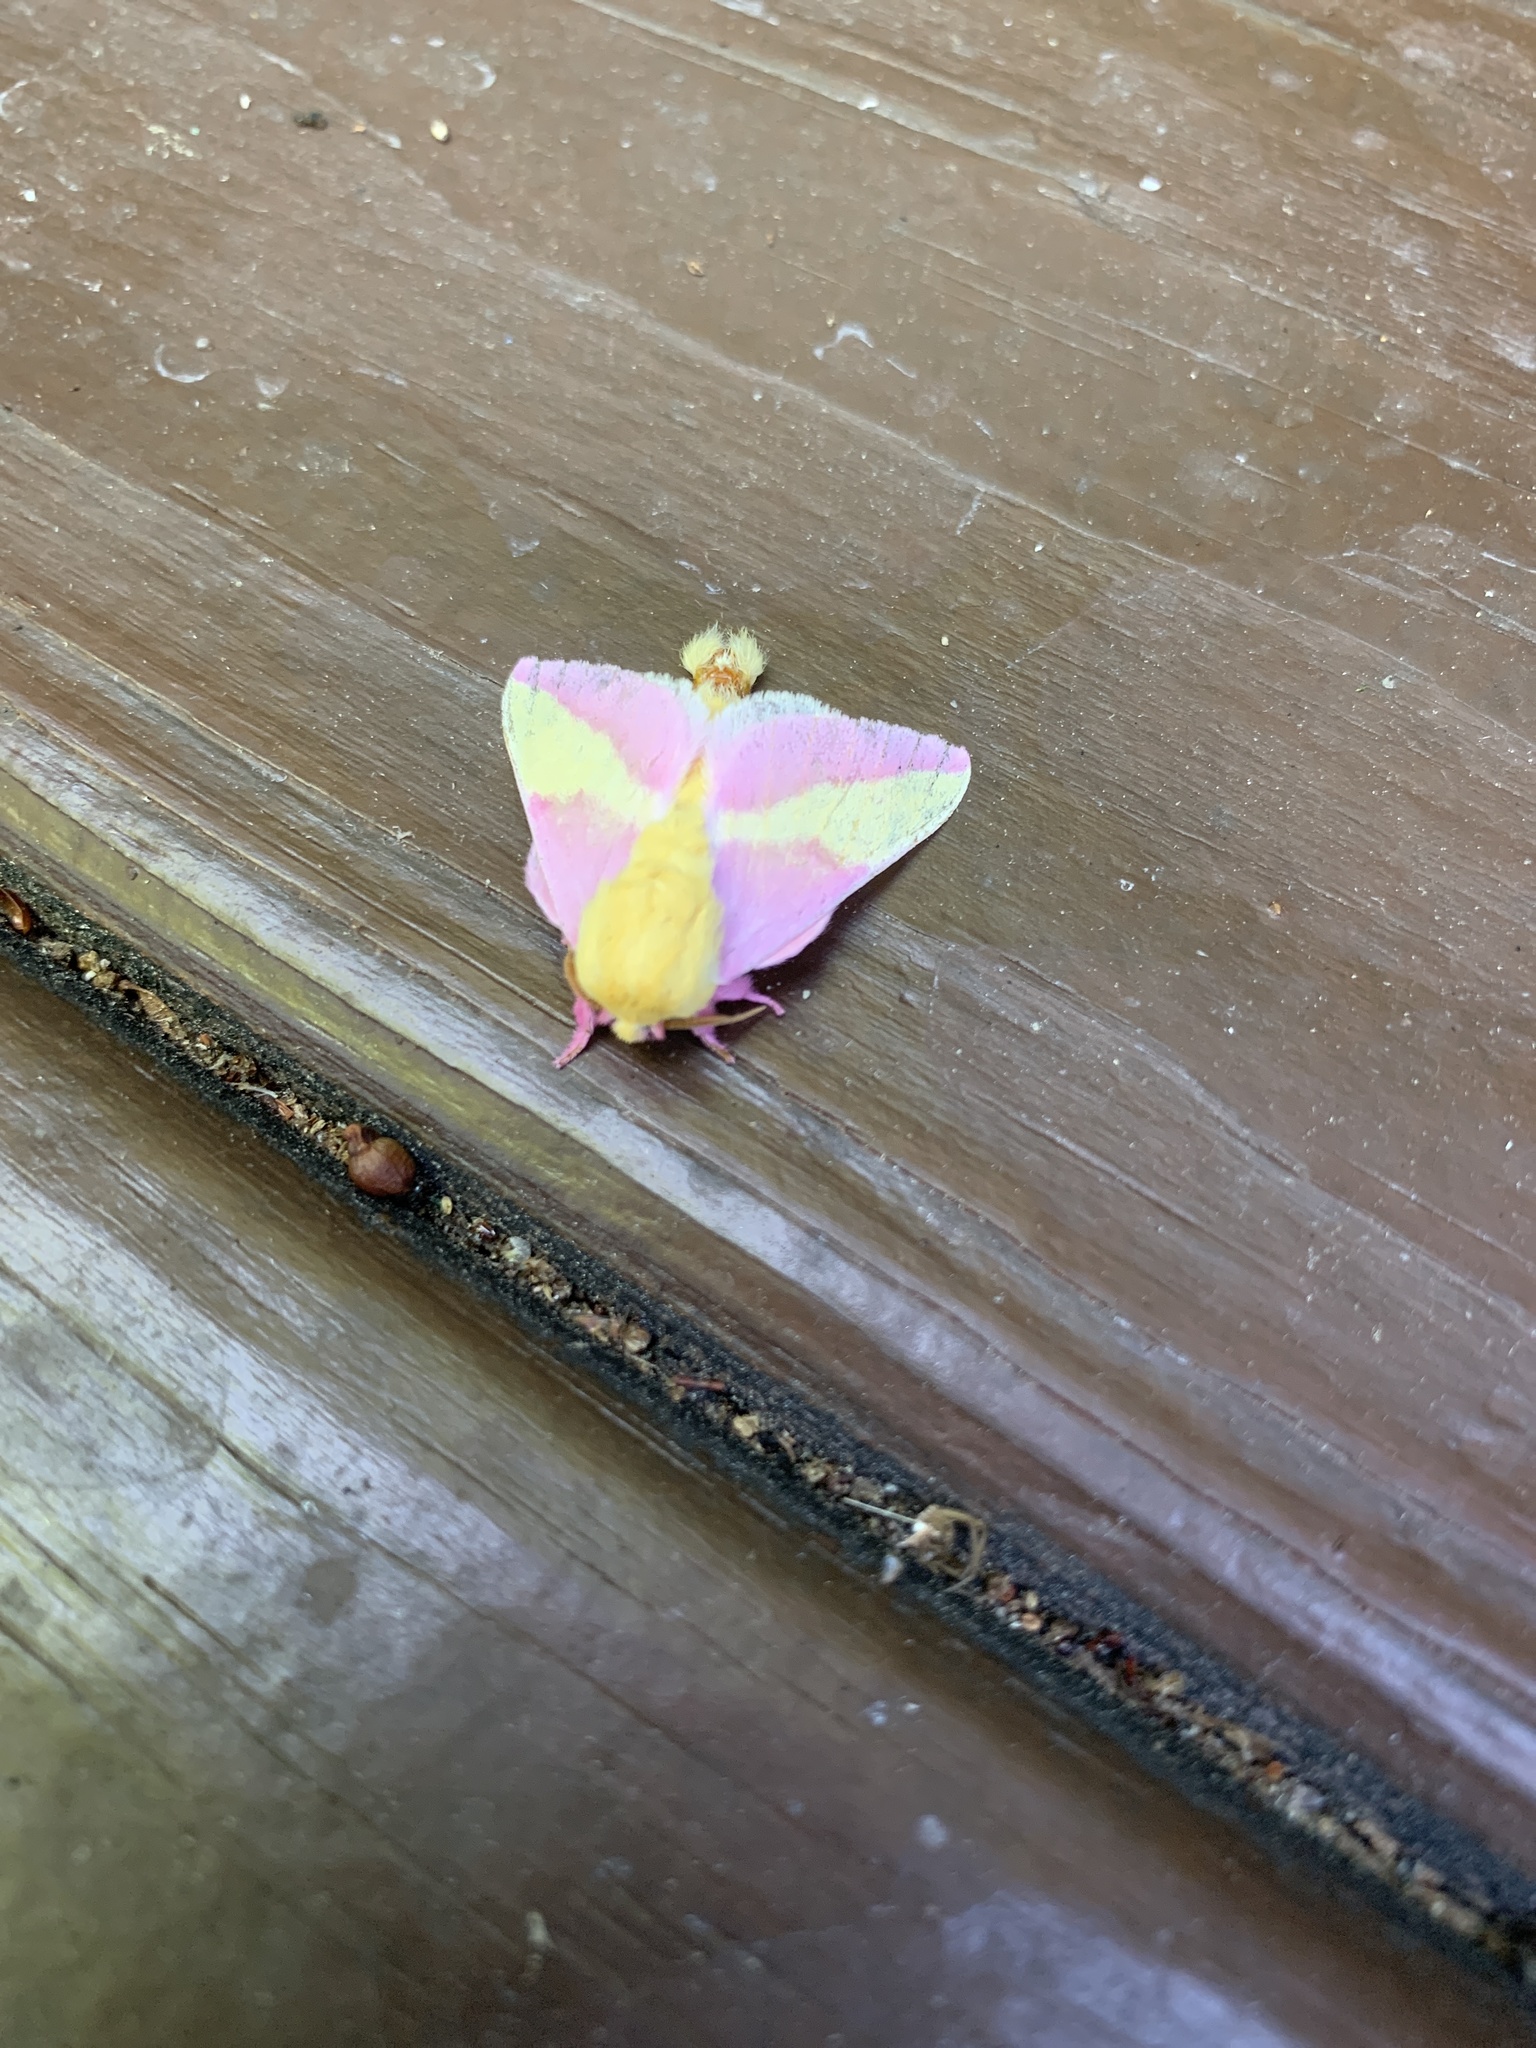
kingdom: Animalia
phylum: Arthropoda
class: Insecta
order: Lepidoptera
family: Saturniidae
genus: Dryocampa
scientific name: Dryocampa rubicunda
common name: Rosy maple moth
